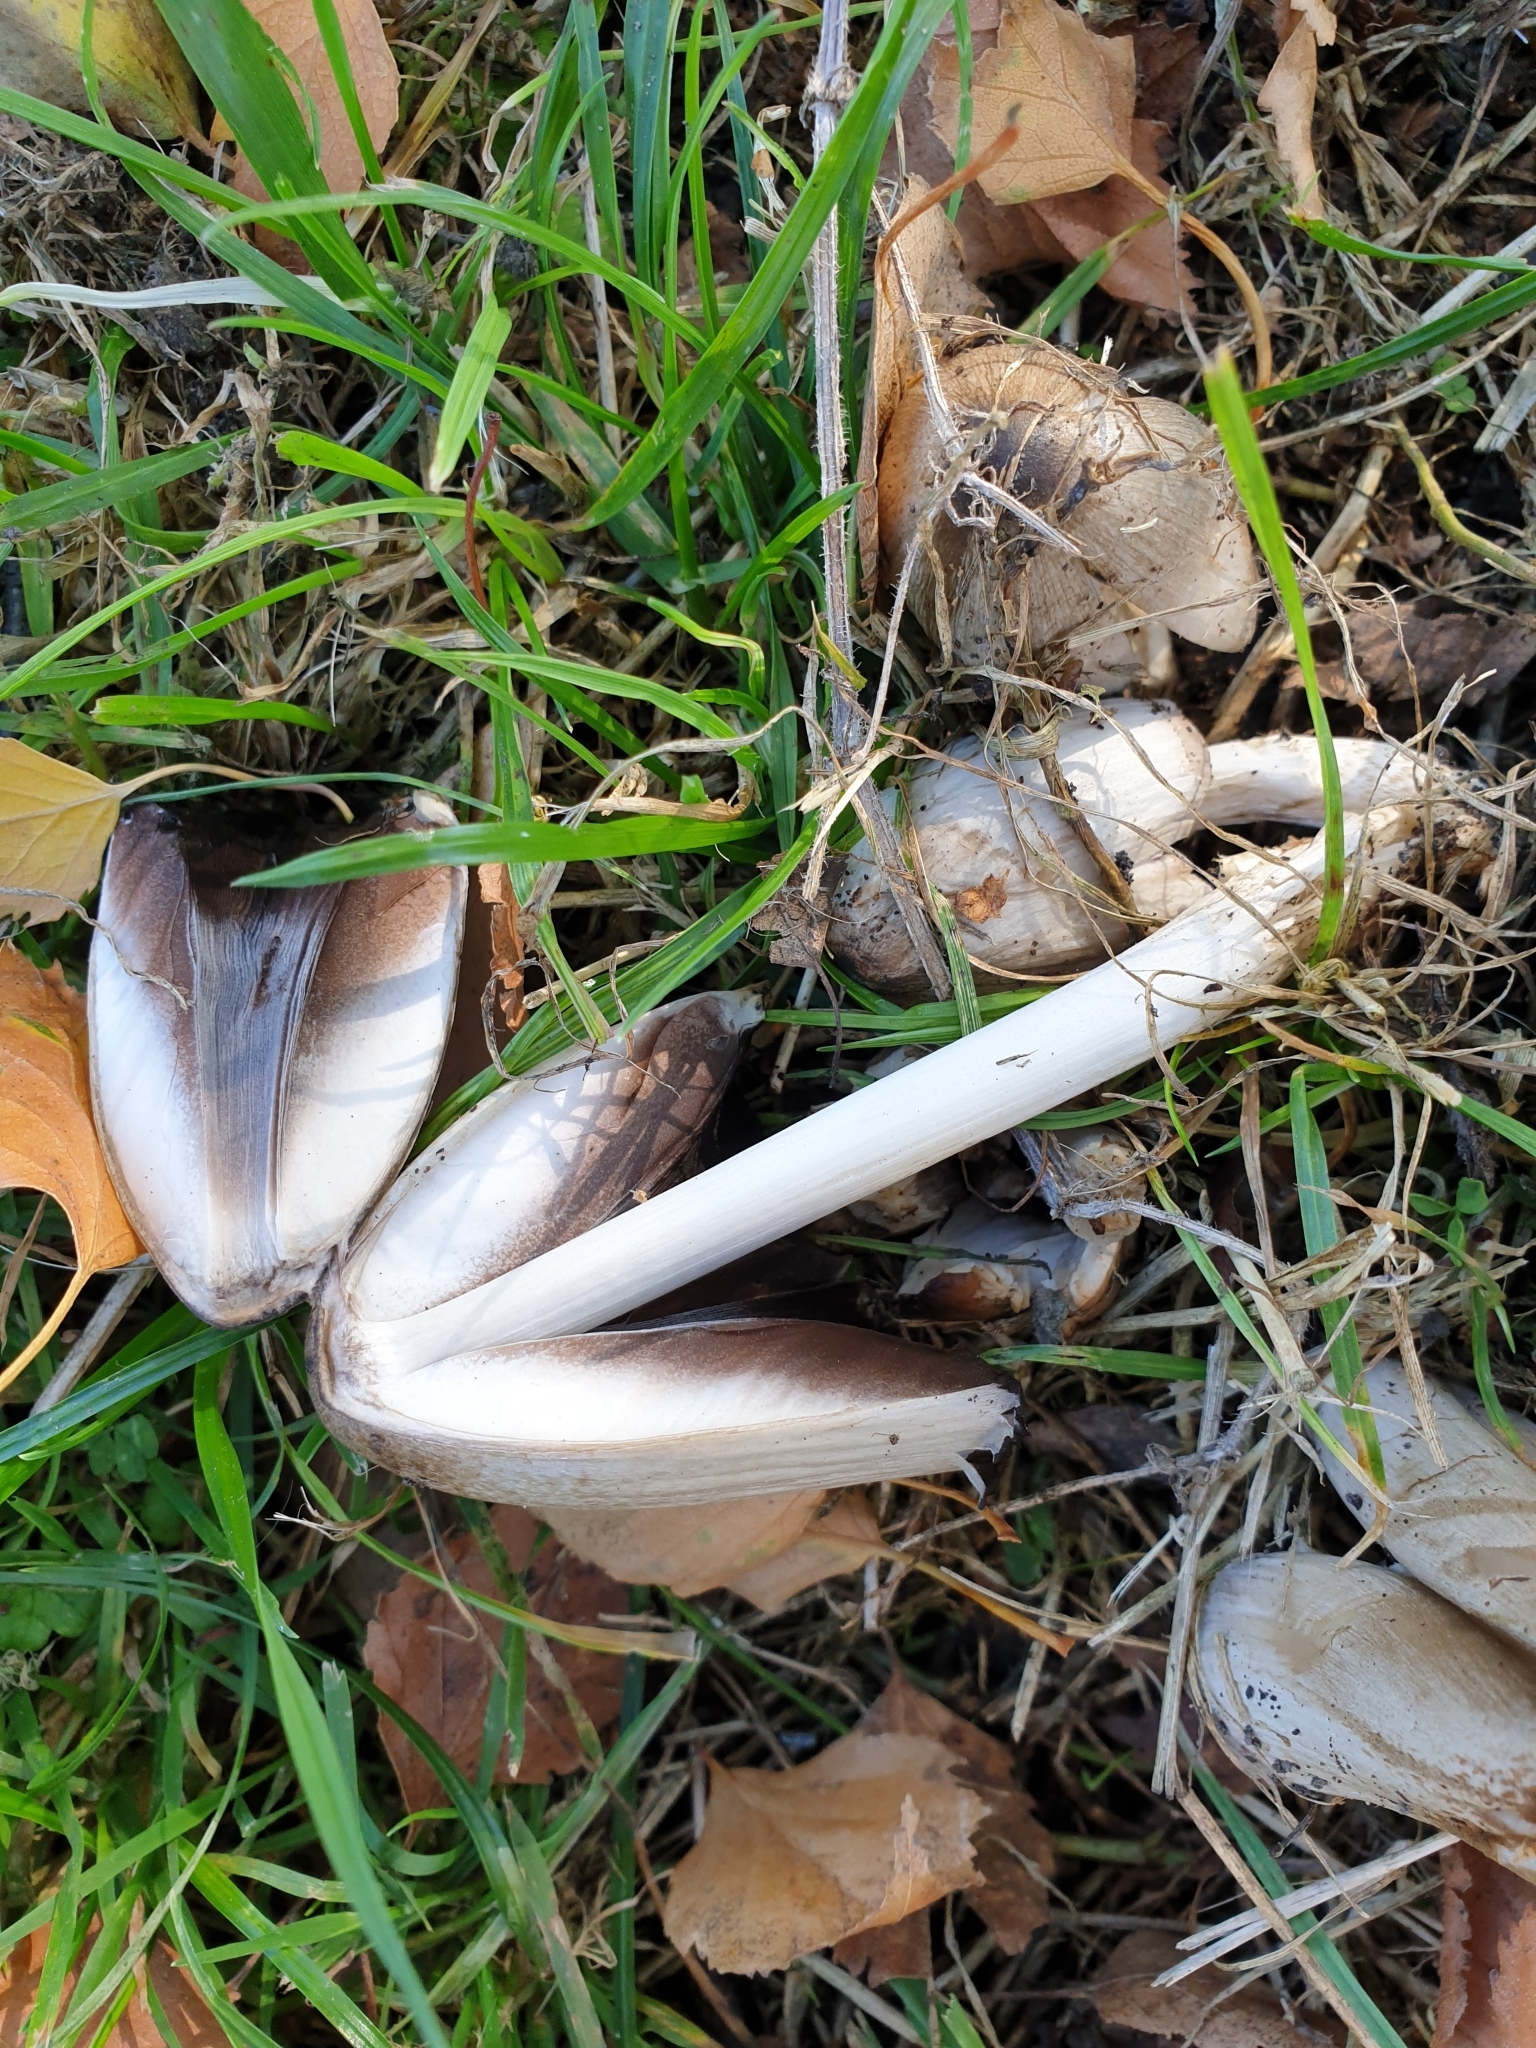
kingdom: Fungi
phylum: Basidiomycota
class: Agaricomycetes
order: Agaricales
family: Psathyrellaceae
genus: Coprinopsis
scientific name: Coprinopsis atramentaria
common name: Common ink-cap
